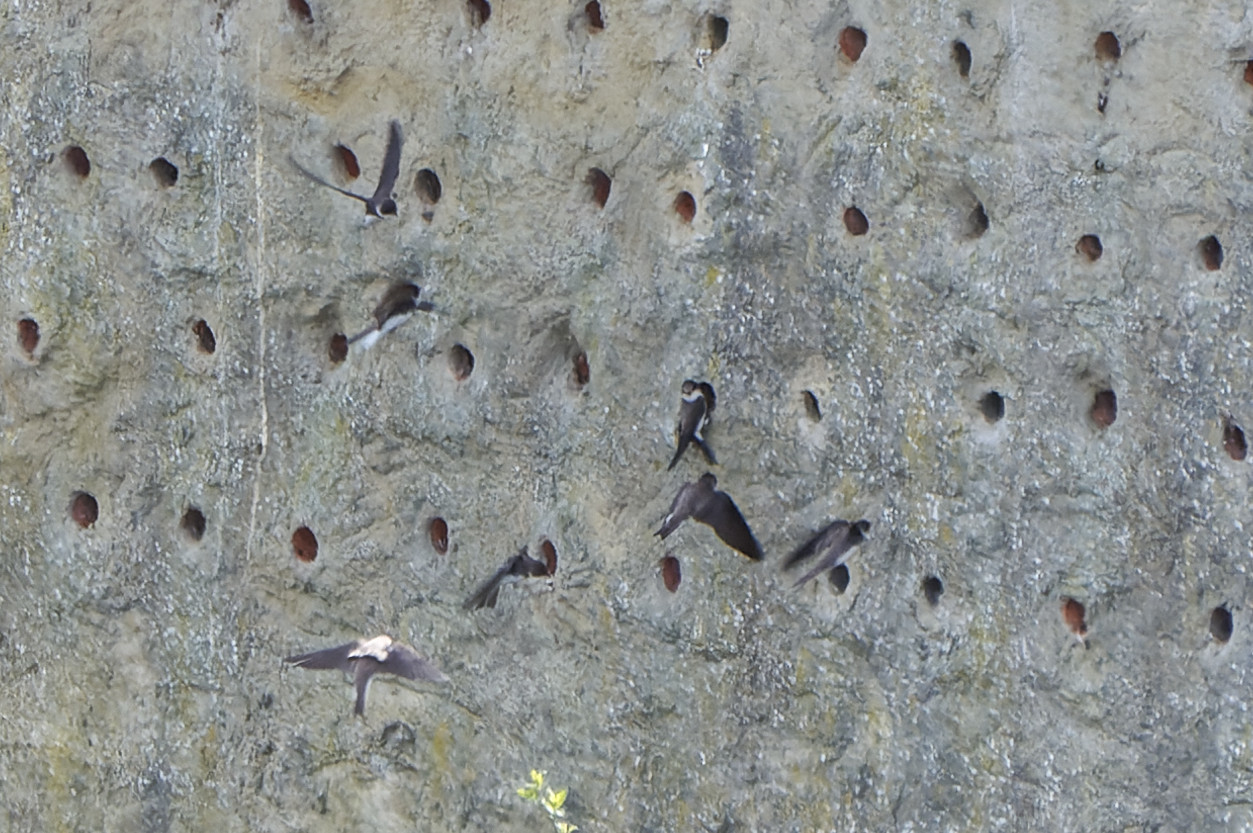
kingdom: Animalia
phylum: Chordata
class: Aves
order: Passeriformes
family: Hirundinidae
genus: Riparia
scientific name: Riparia riparia
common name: Sand martin
